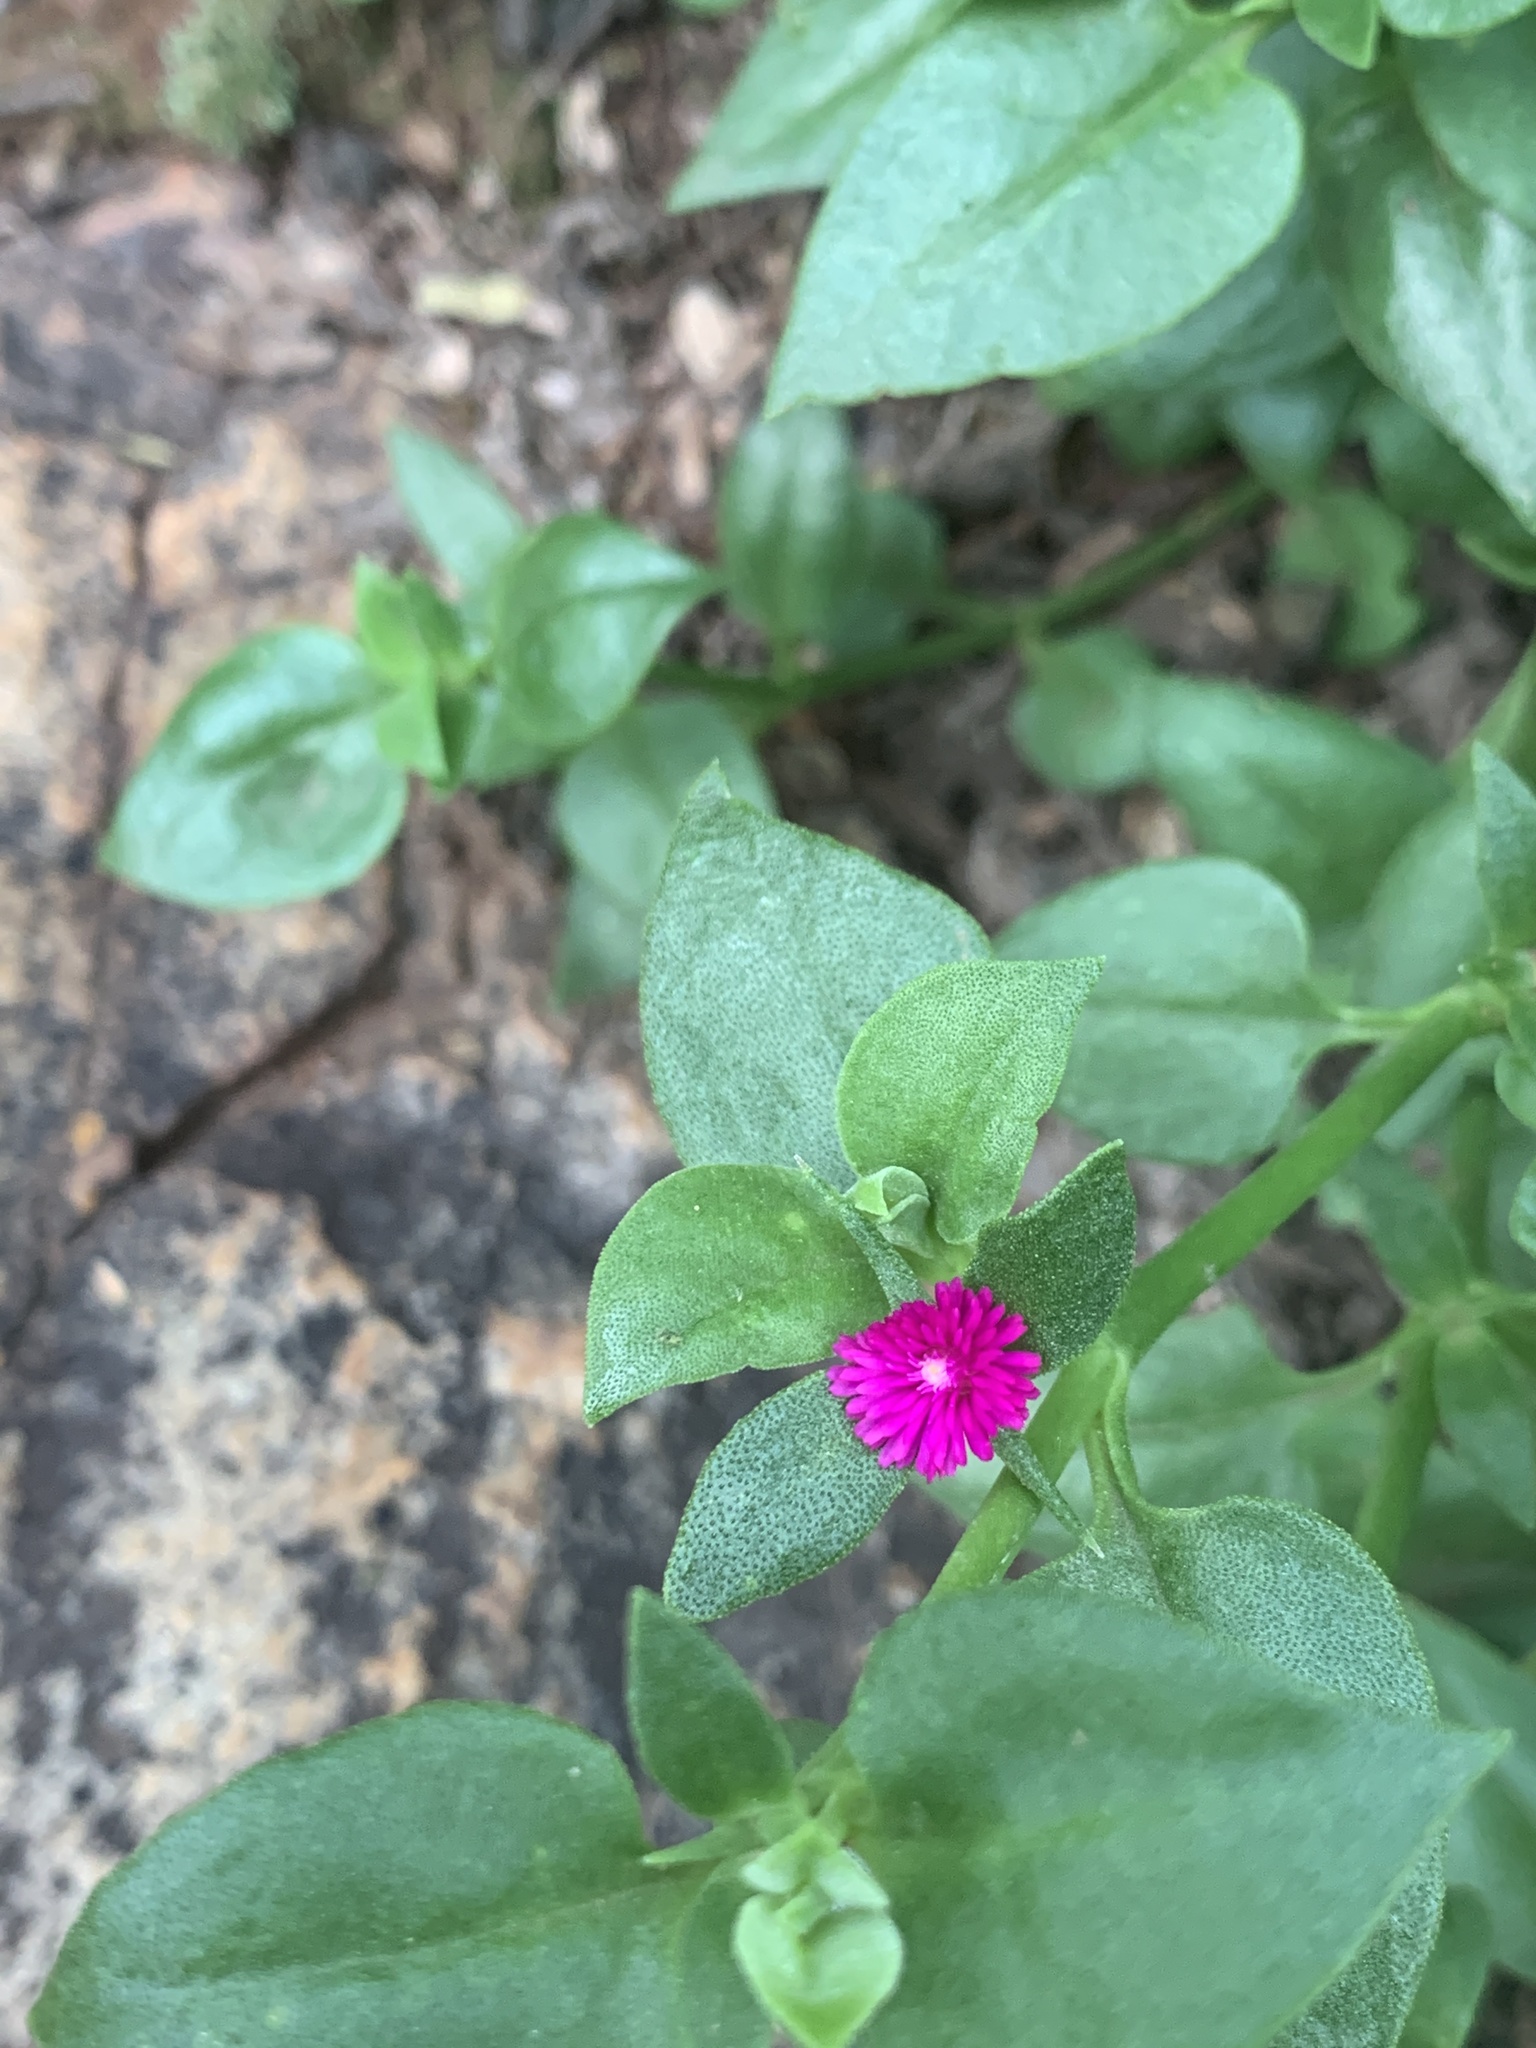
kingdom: Plantae
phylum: Tracheophyta
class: Magnoliopsida
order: Caryophyllales
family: Aizoaceae
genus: Mesembryanthemum
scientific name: Mesembryanthemum cordifolium
